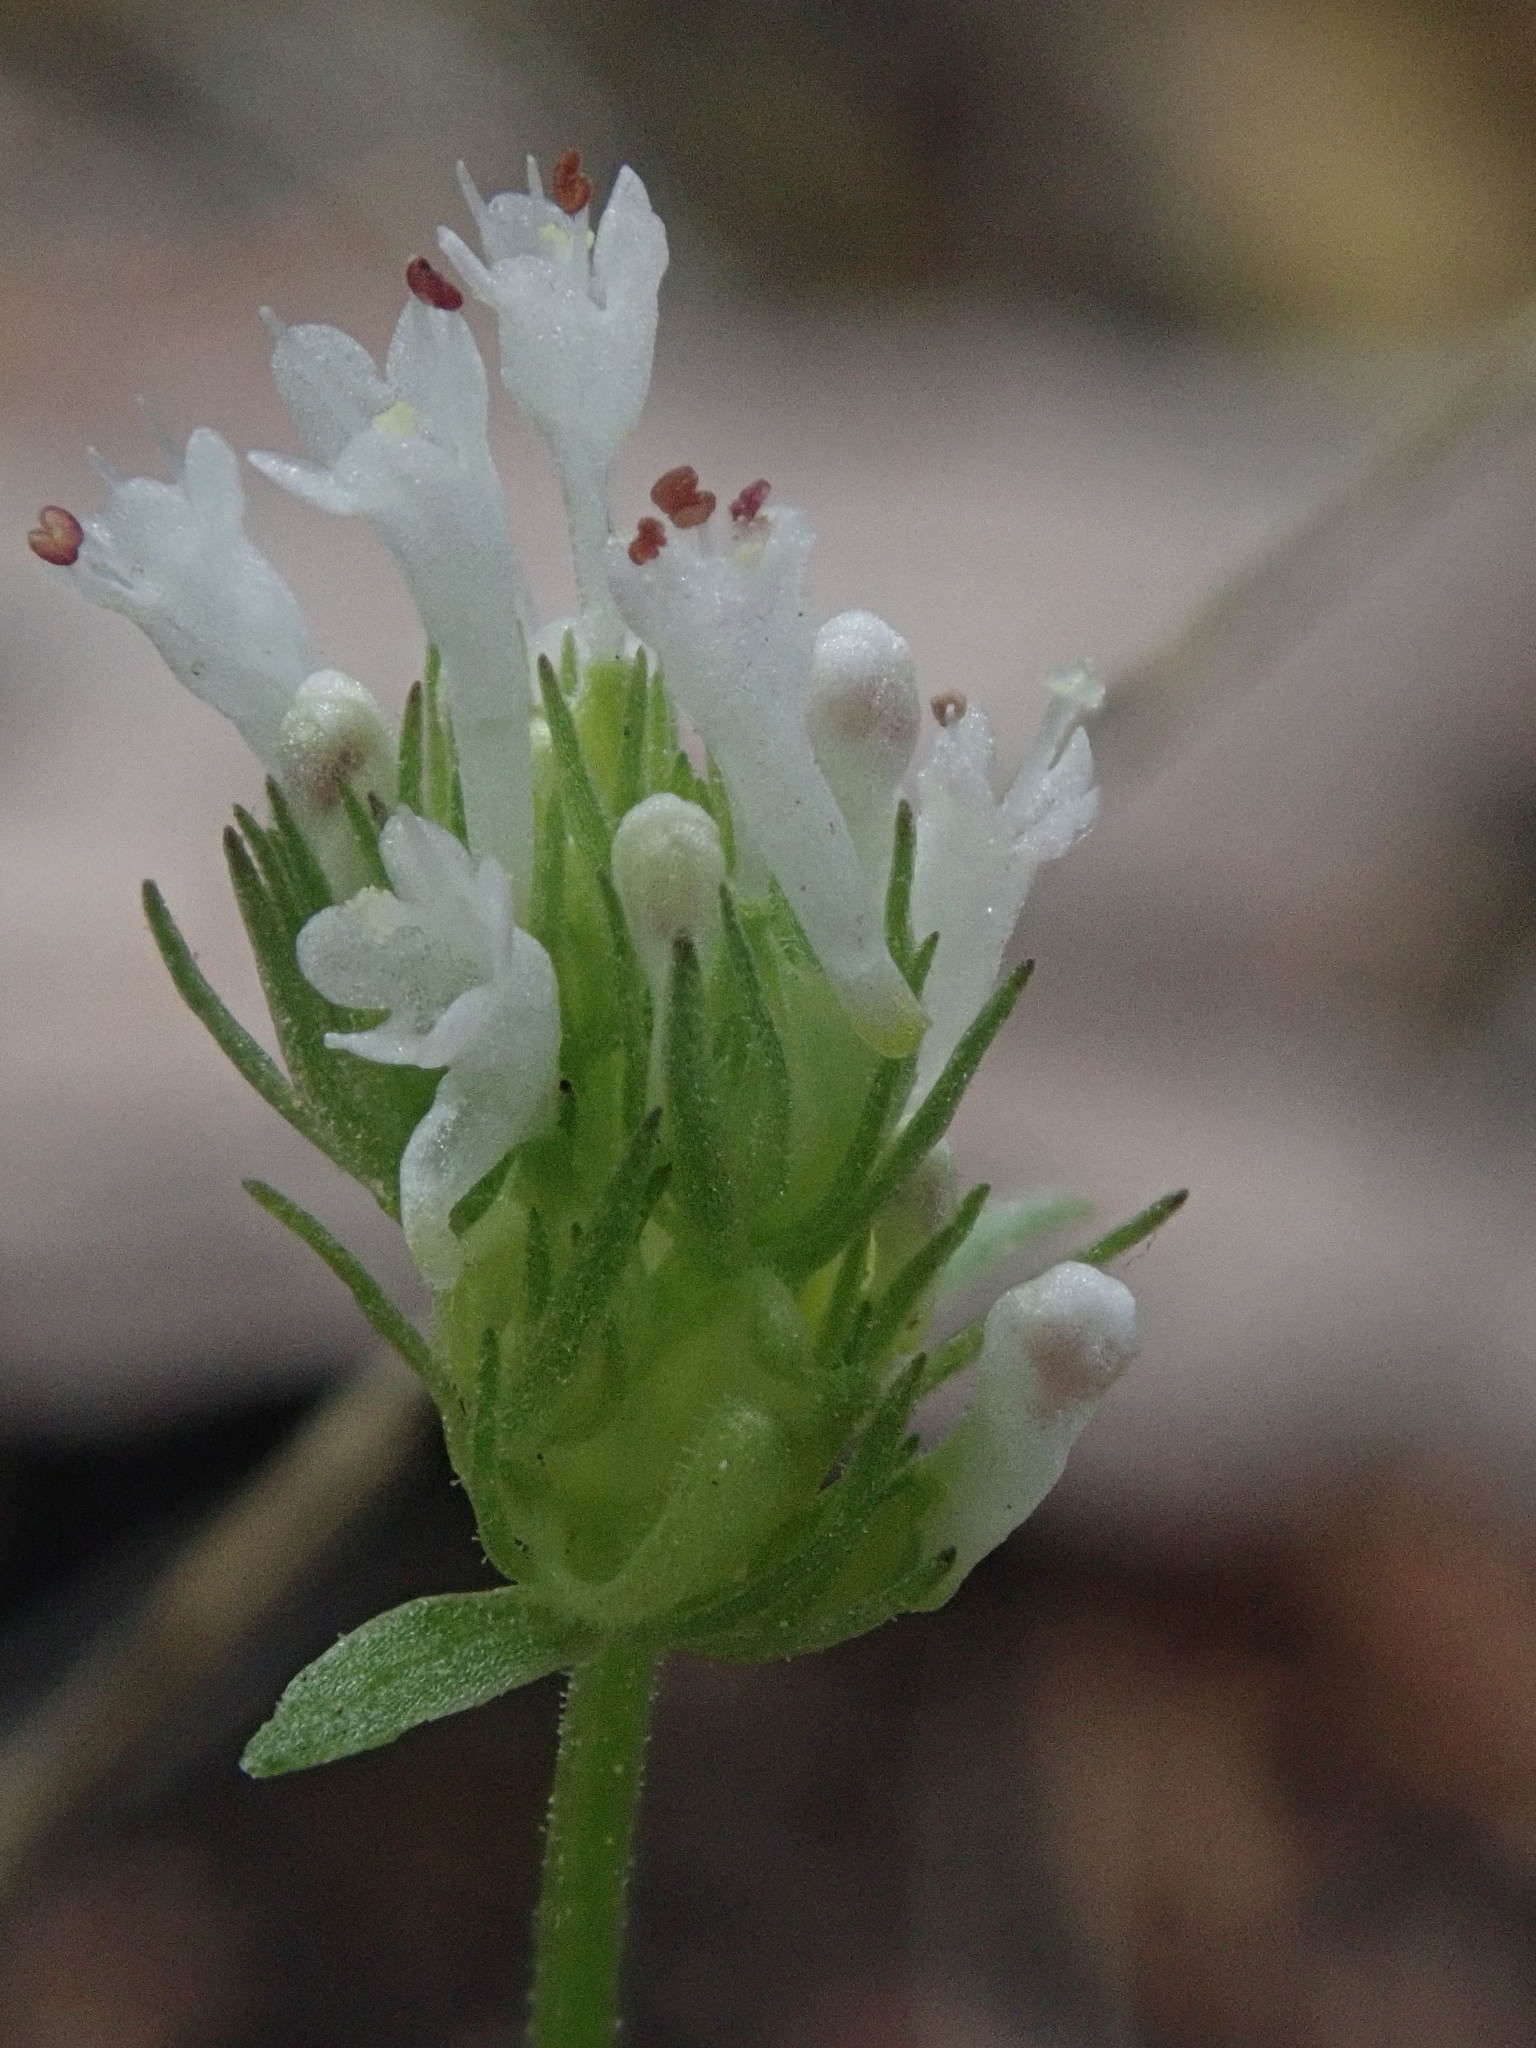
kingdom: Plantae
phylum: Tracheophyta
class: Magnoliopsida
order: Dipsacales
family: Caprifoliaceae
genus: Plectritis
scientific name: Plectritis macroptera
